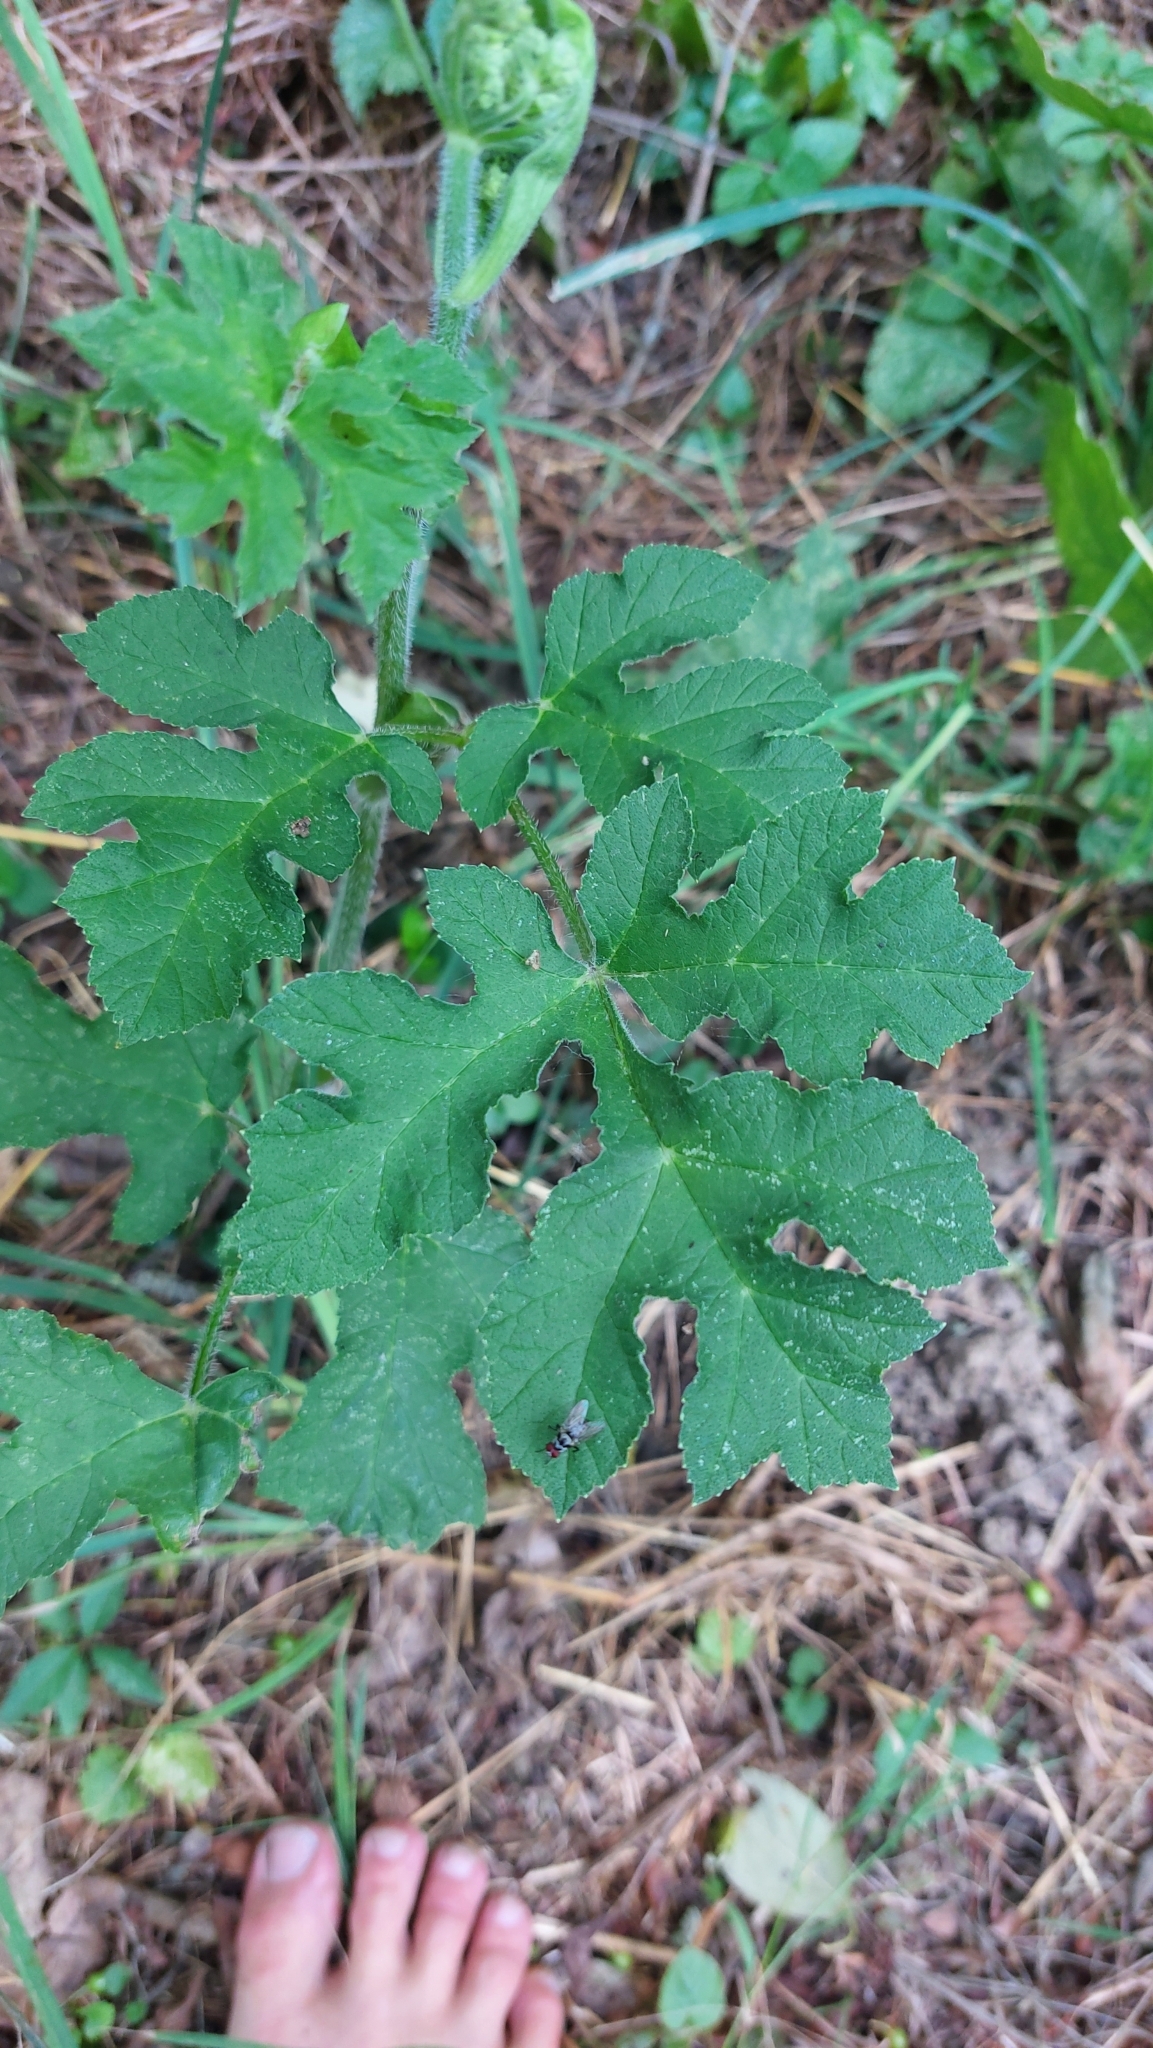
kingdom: Plantae
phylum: Tracheophyta
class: Magnoliopsida
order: Apiales
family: Apiaceae
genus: Heracleum
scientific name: Heracleum sphondylium
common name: Hogweed
